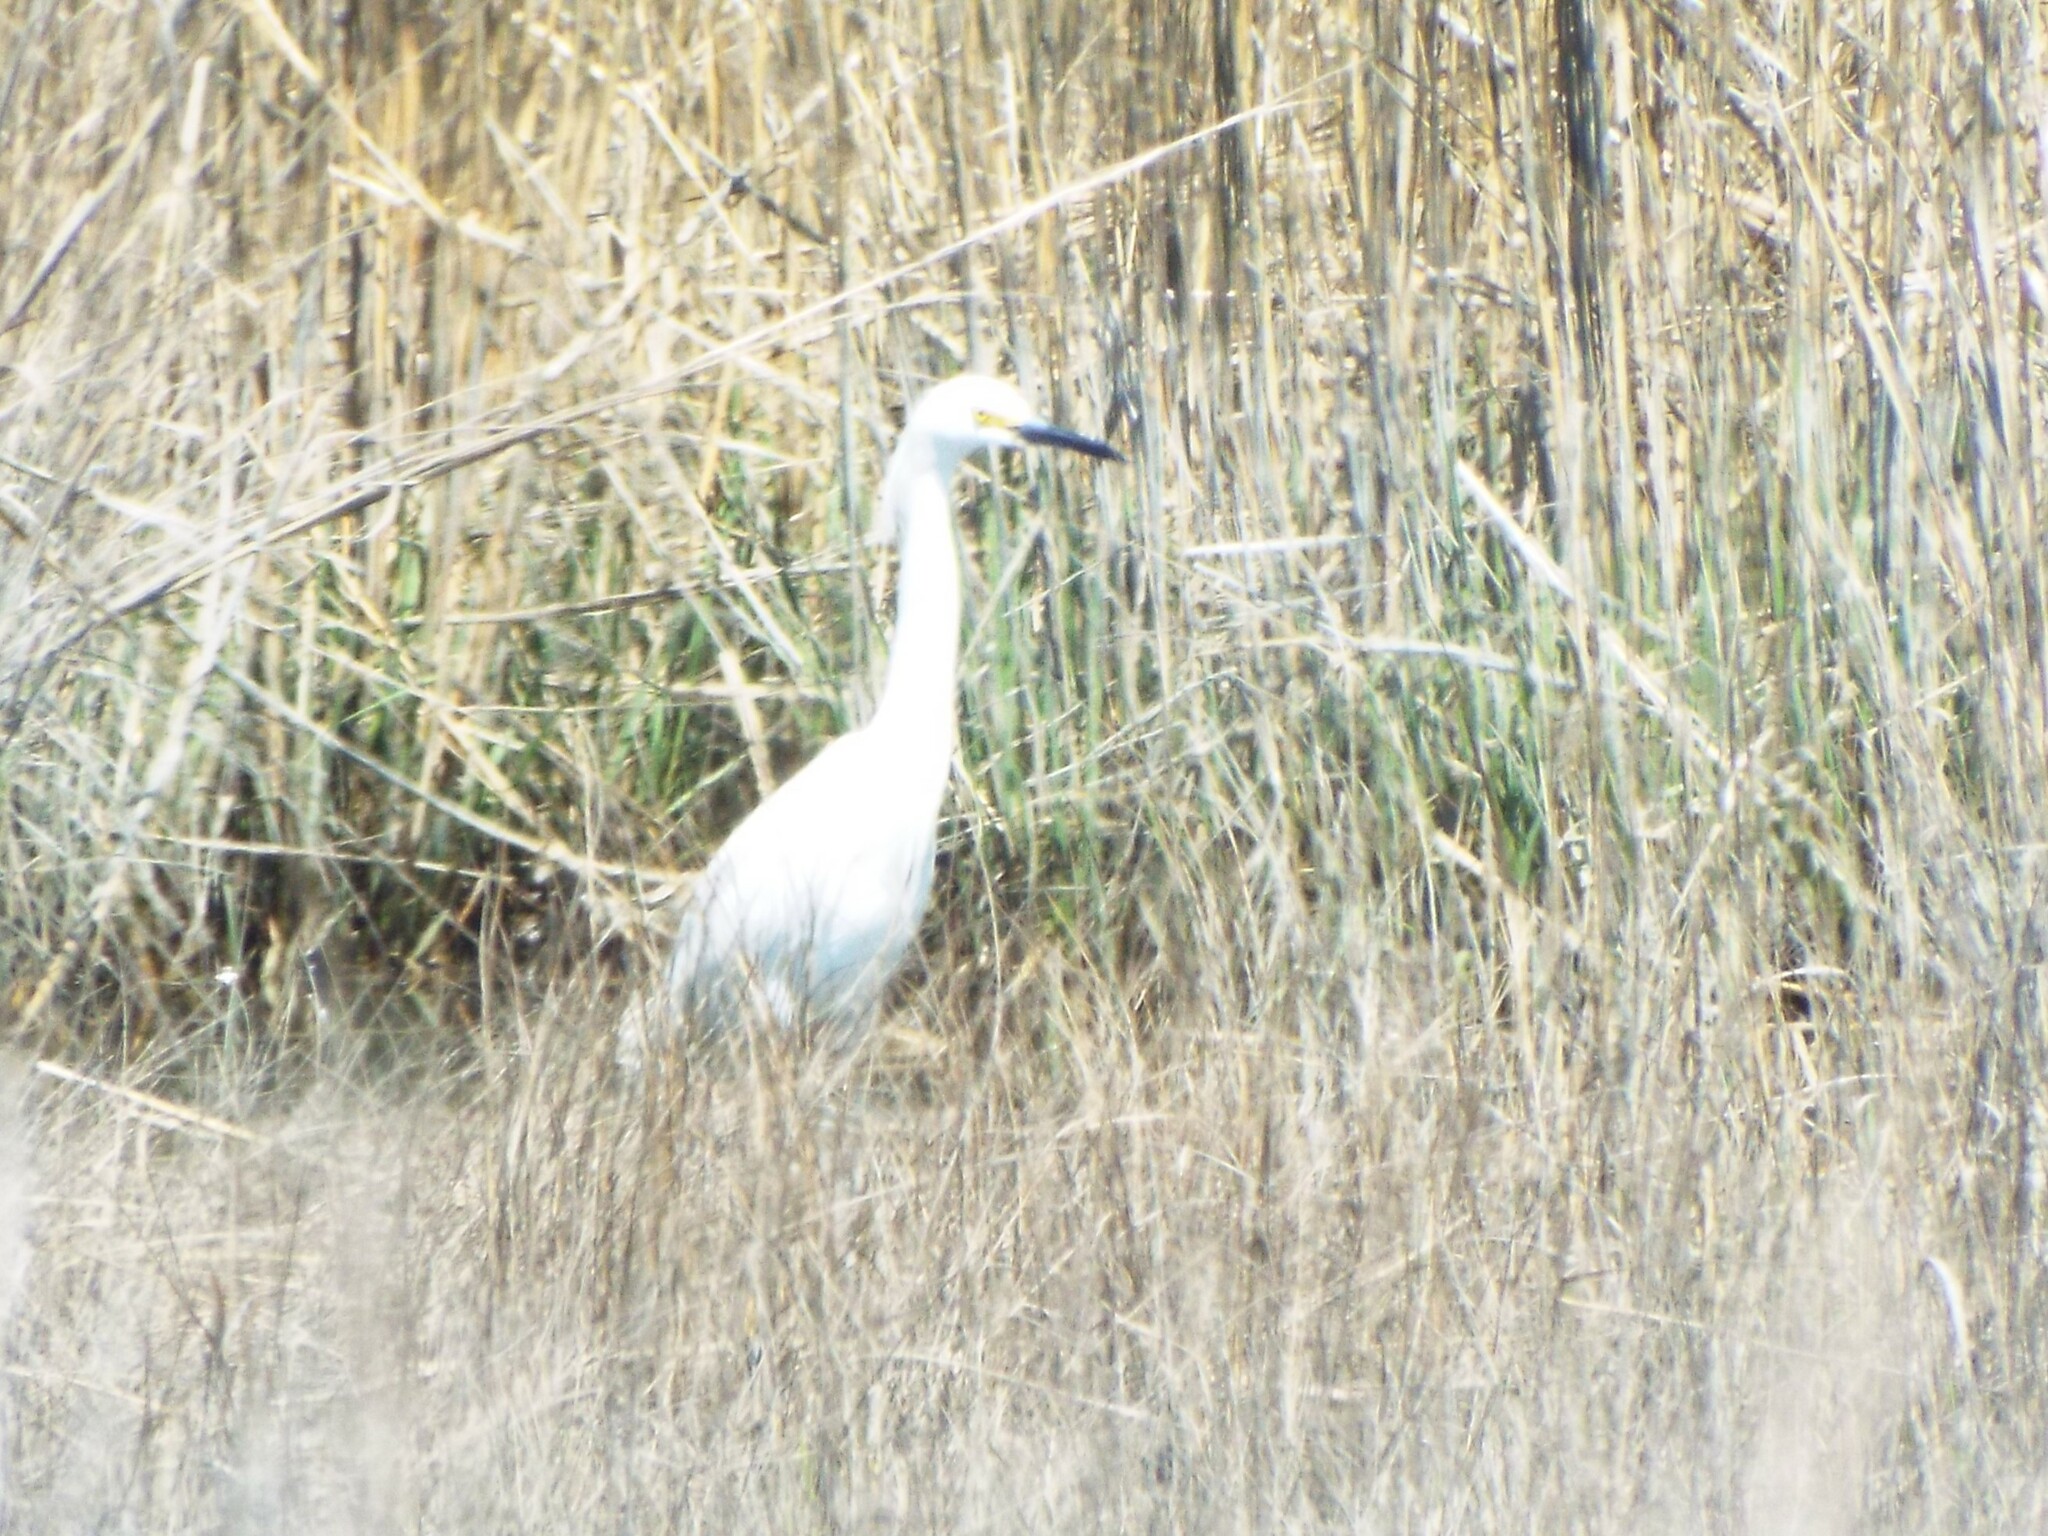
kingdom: Animalia
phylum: Chordata
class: Aves
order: Pelecaniformes
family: Ardeidae
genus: Egretta
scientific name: Egretta thula
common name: Snowy egret
